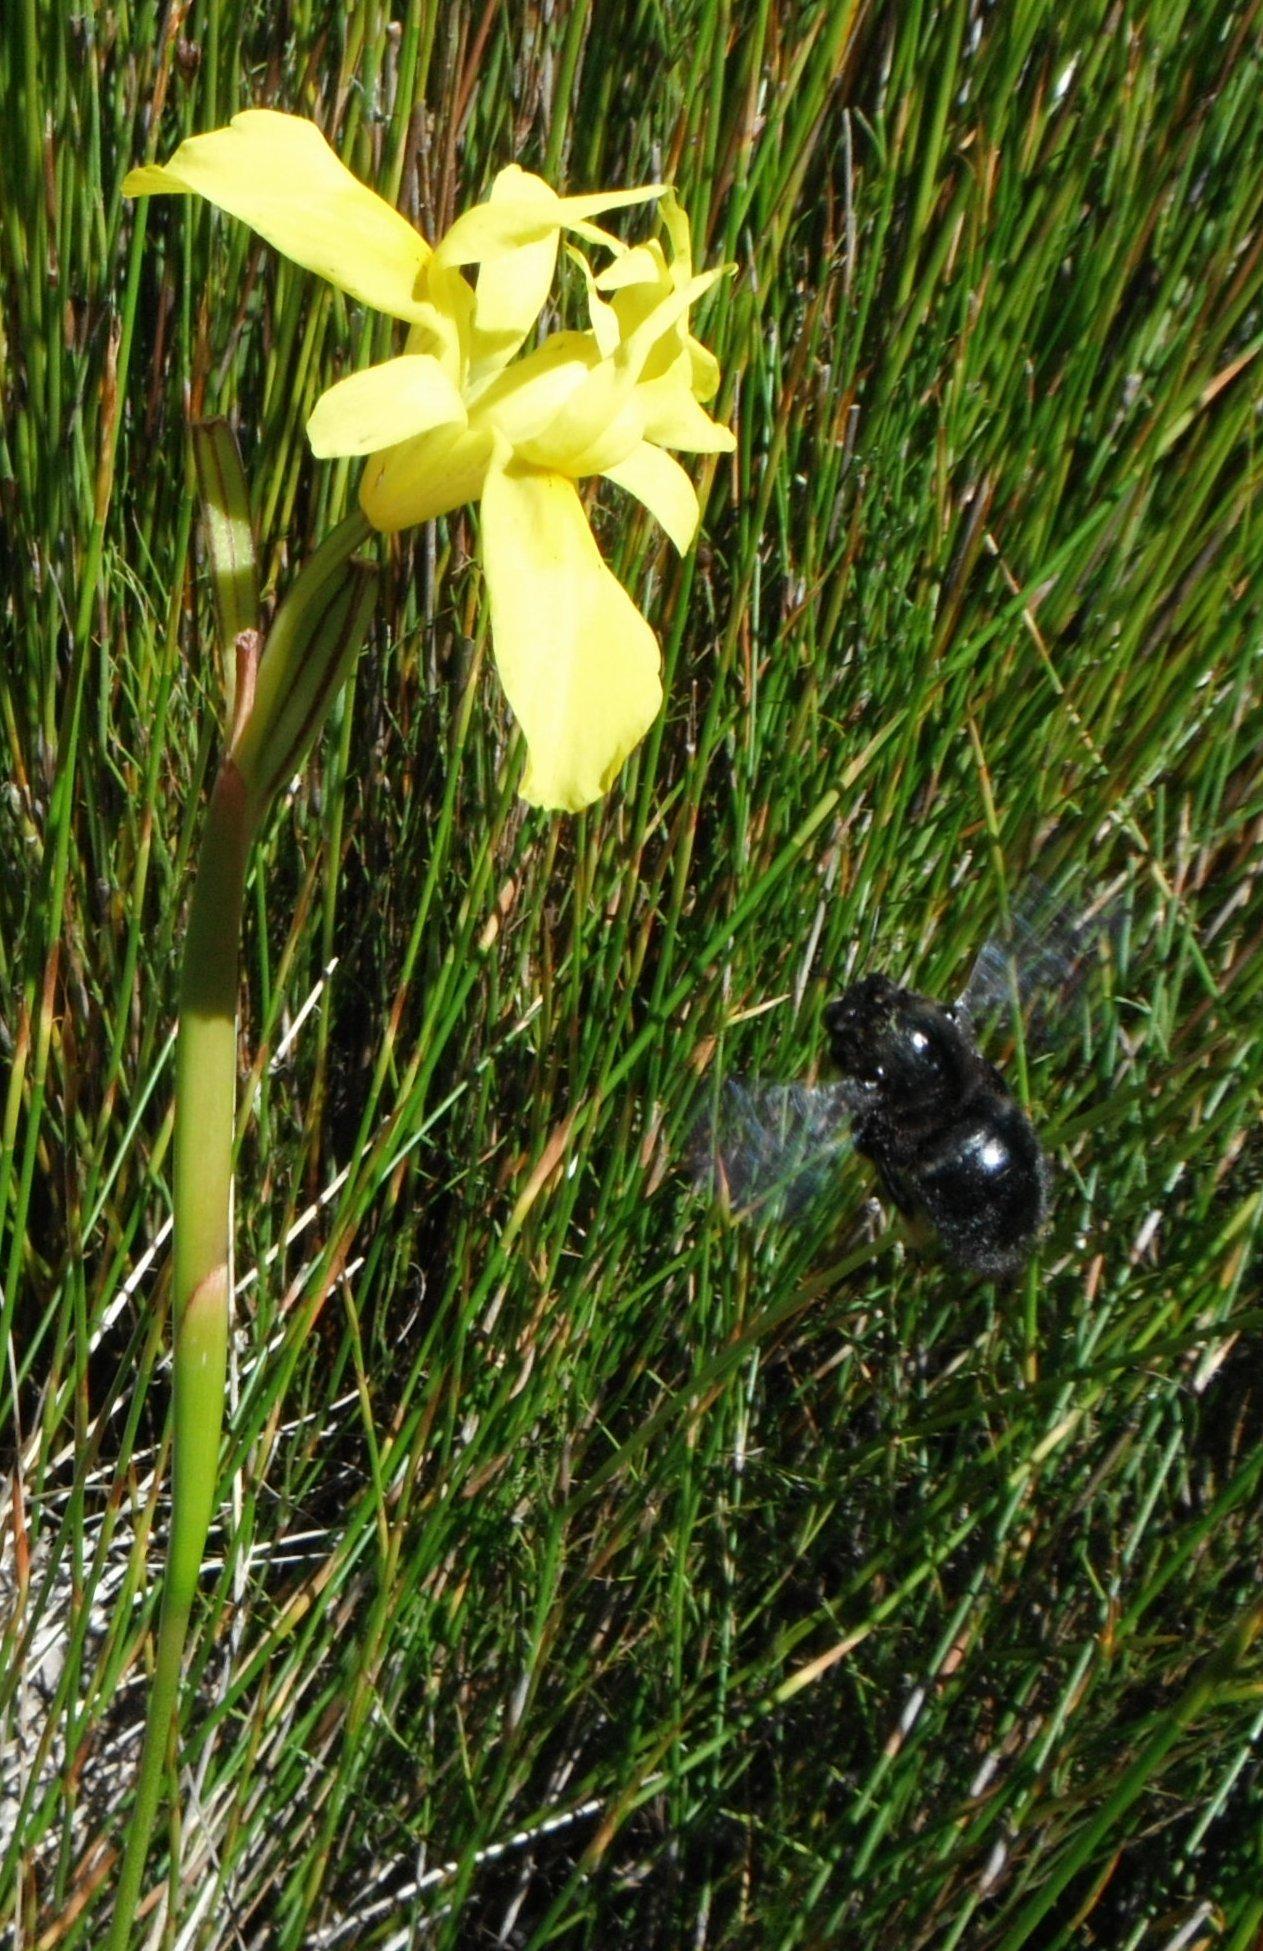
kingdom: Animalia
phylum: Arthropoda
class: Insecta
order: Hymenoptera
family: Apidae
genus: Xylocopa
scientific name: Xylocopa capitata
